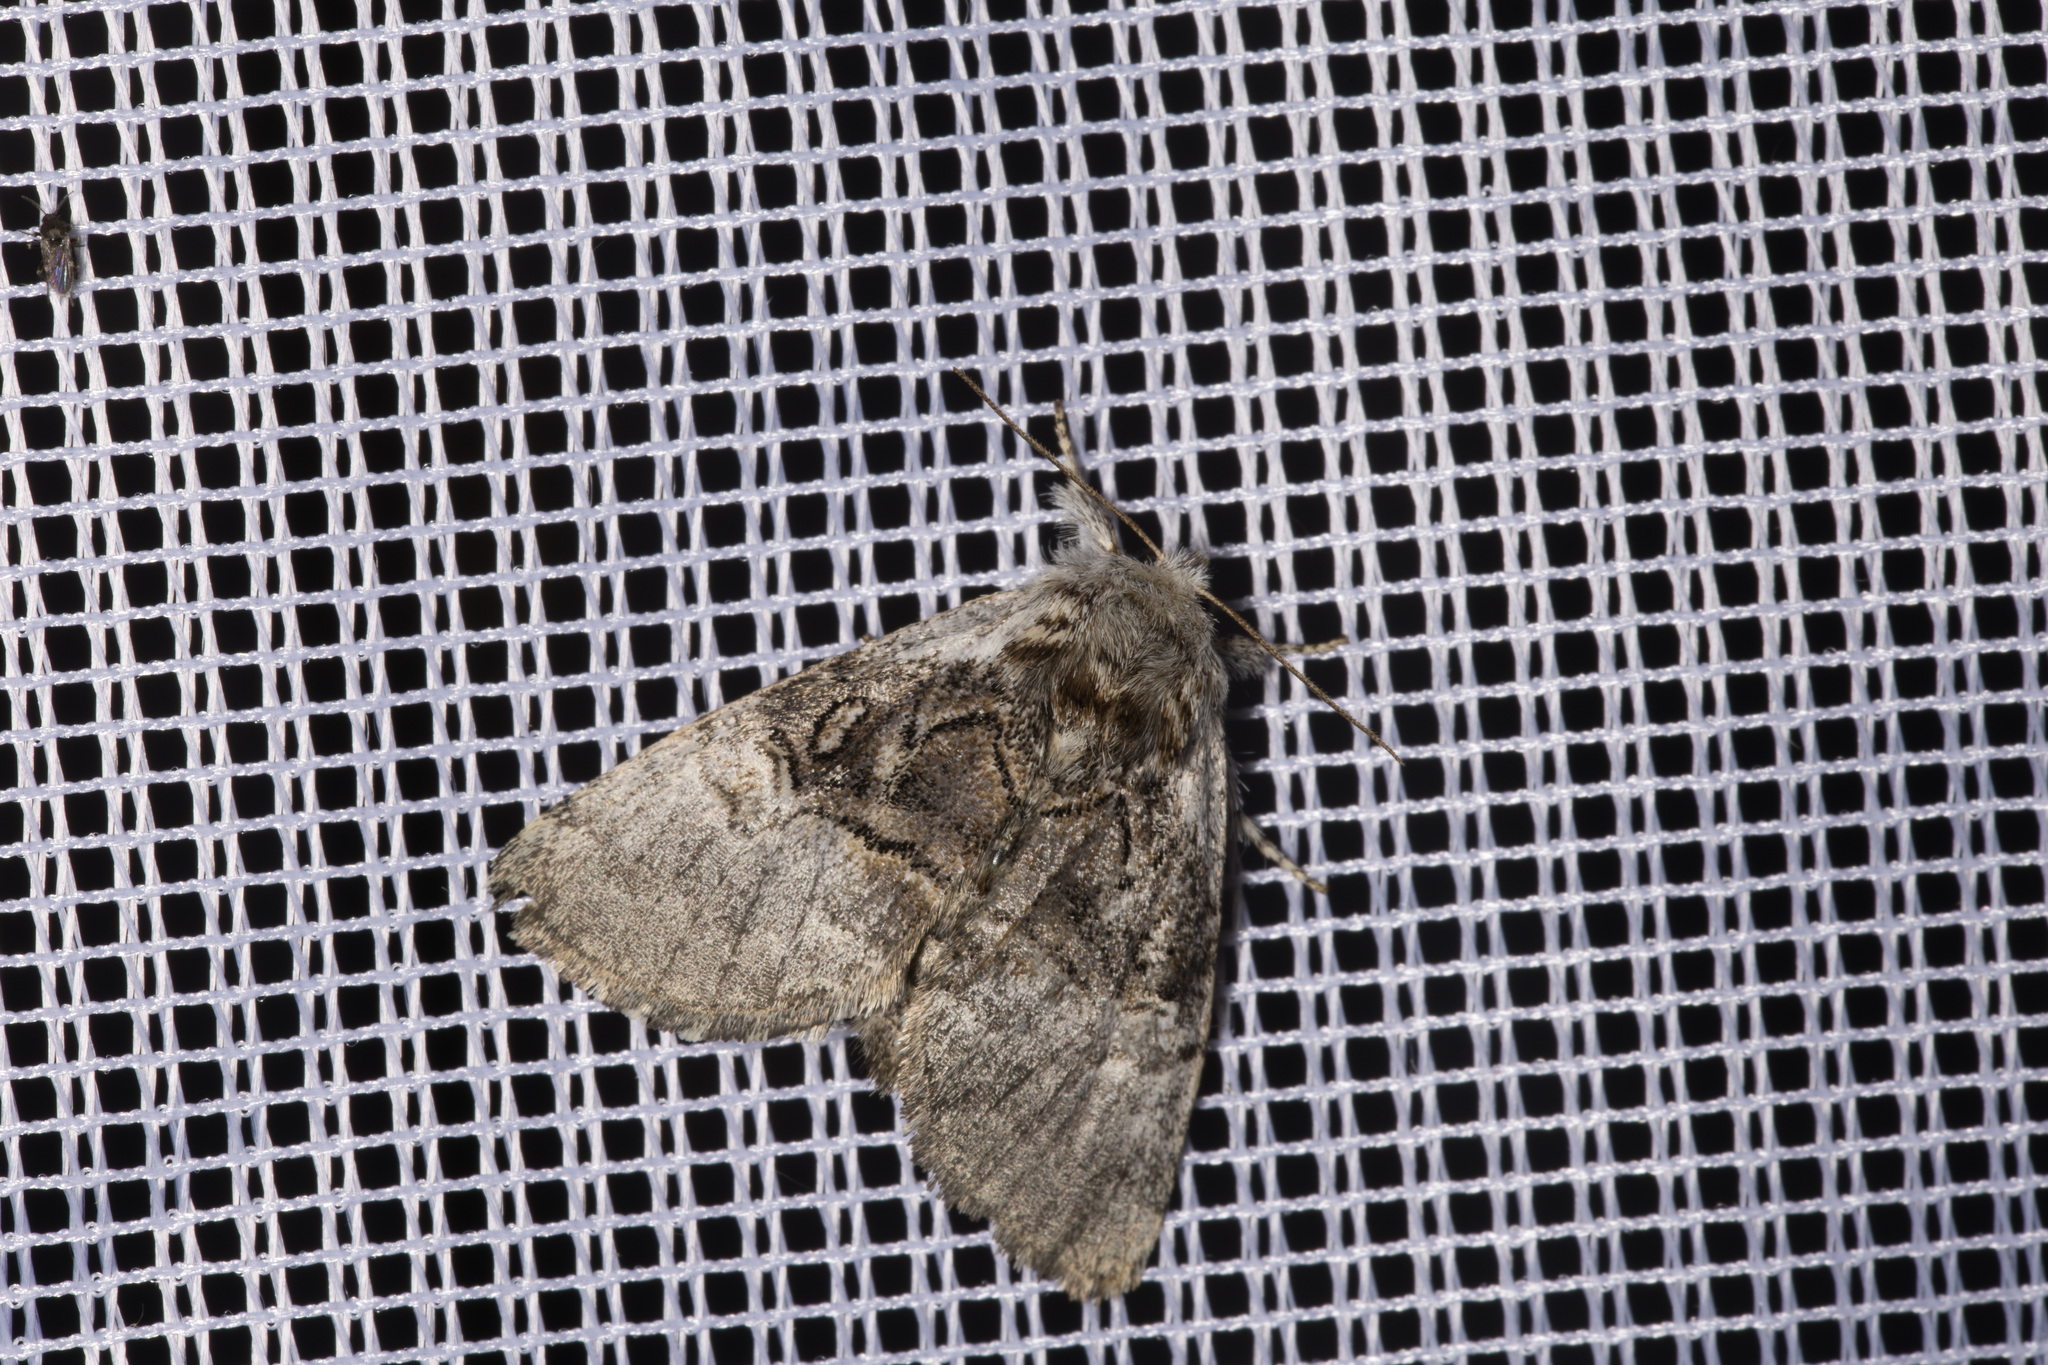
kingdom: Animalia
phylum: Arthropoda
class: Insecta
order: Lepidoptera
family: Noctuidae
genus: Colocasia
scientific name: Colocasia coryli
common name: Nut-tree tussock
